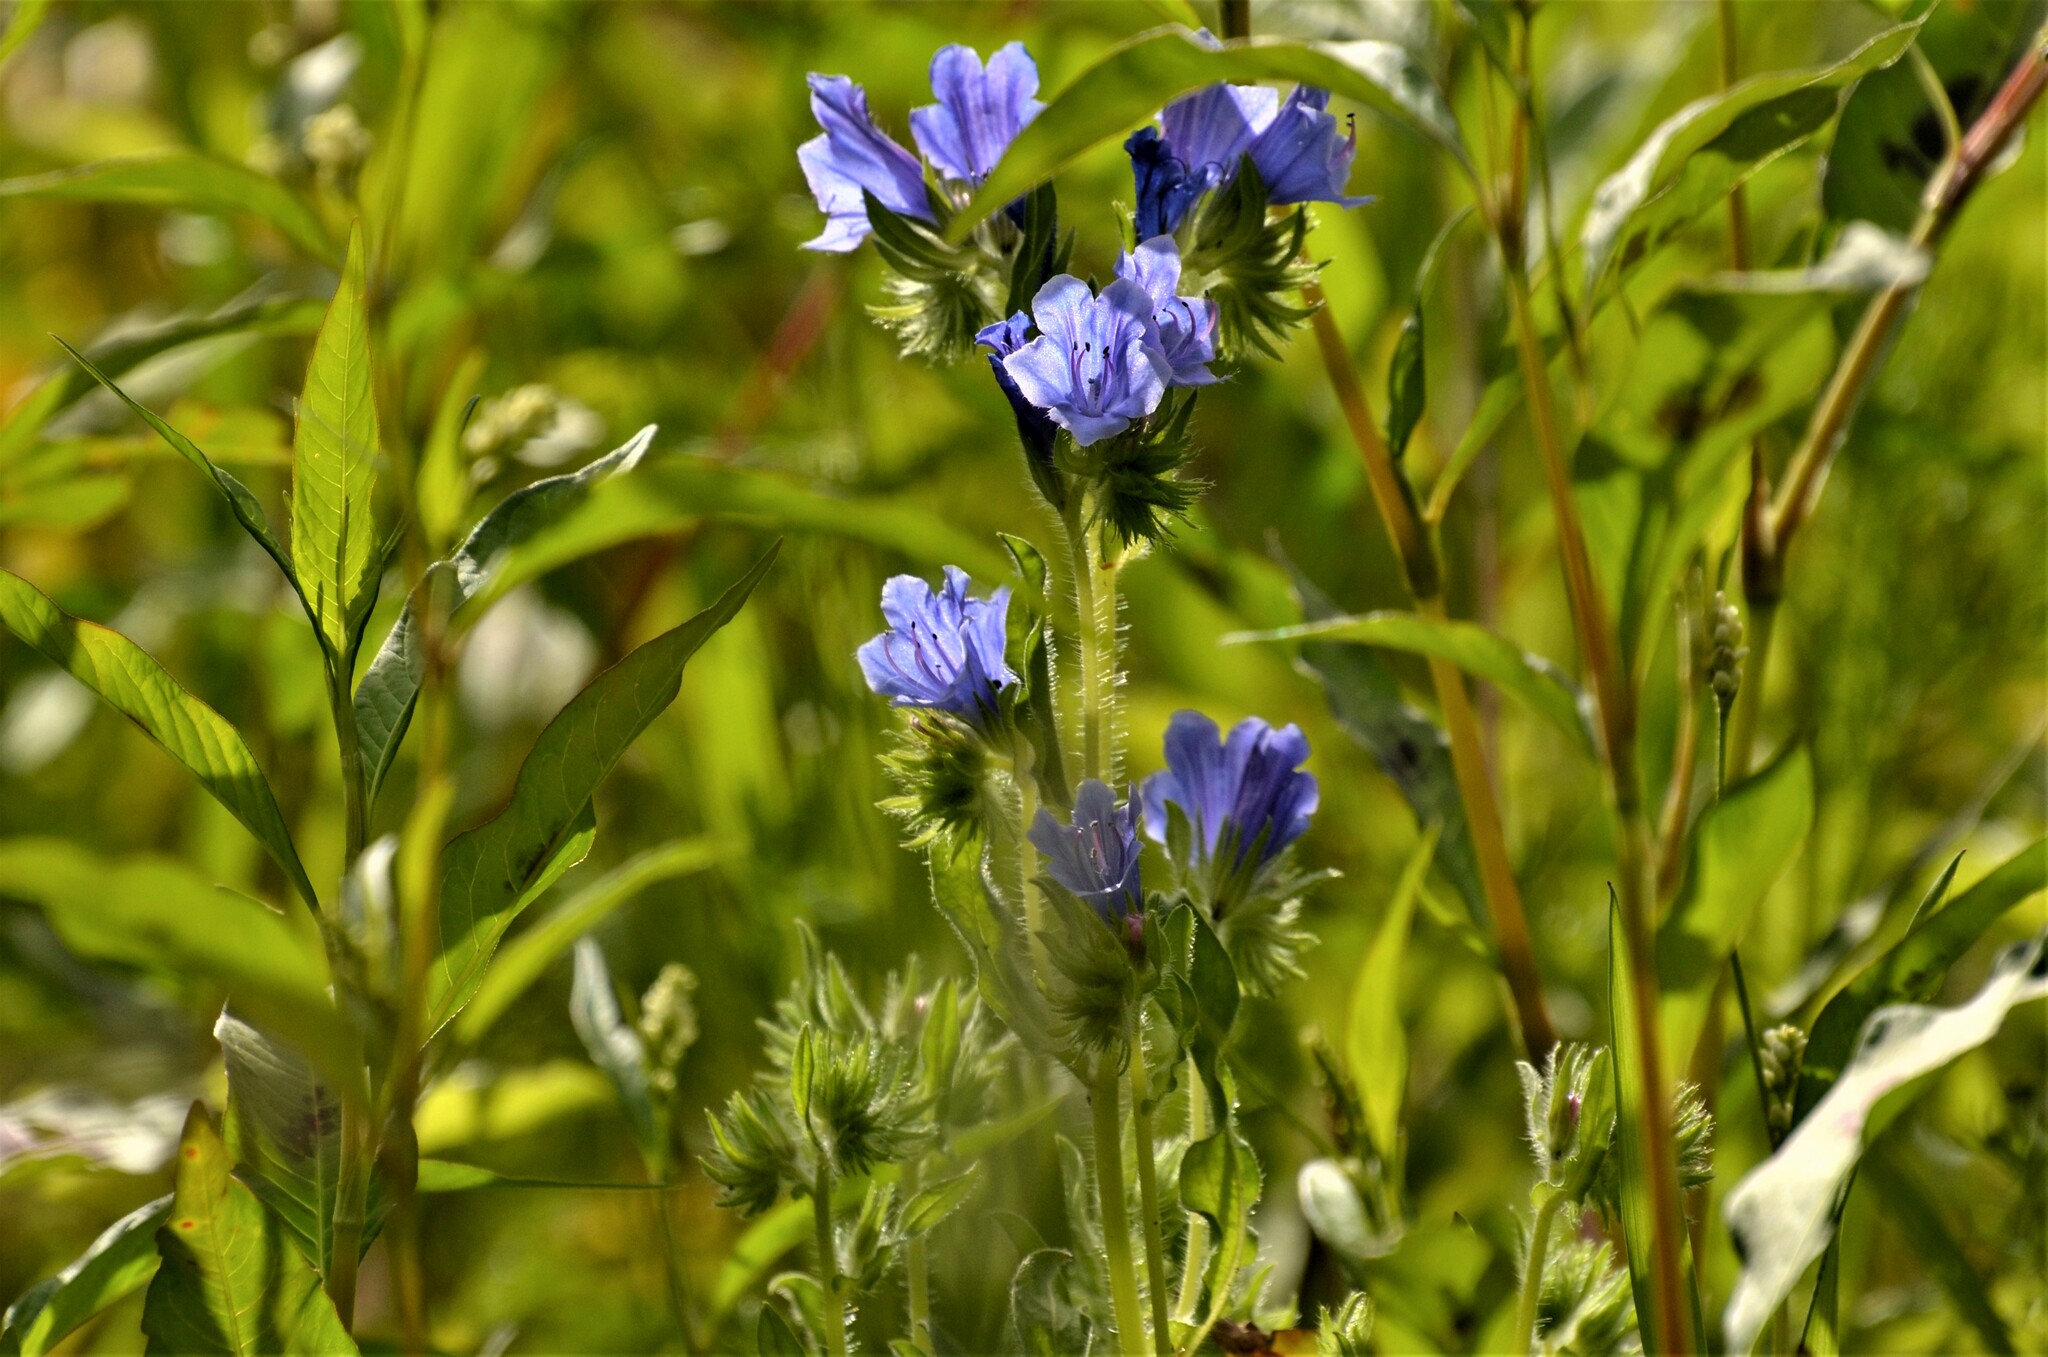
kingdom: Plantae
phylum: Tracheophyta
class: Magnoliopsida
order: Boraginales
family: Boraginaceae
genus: Echium
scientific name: Echium plantagineum
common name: Purple viper's-bugloss
